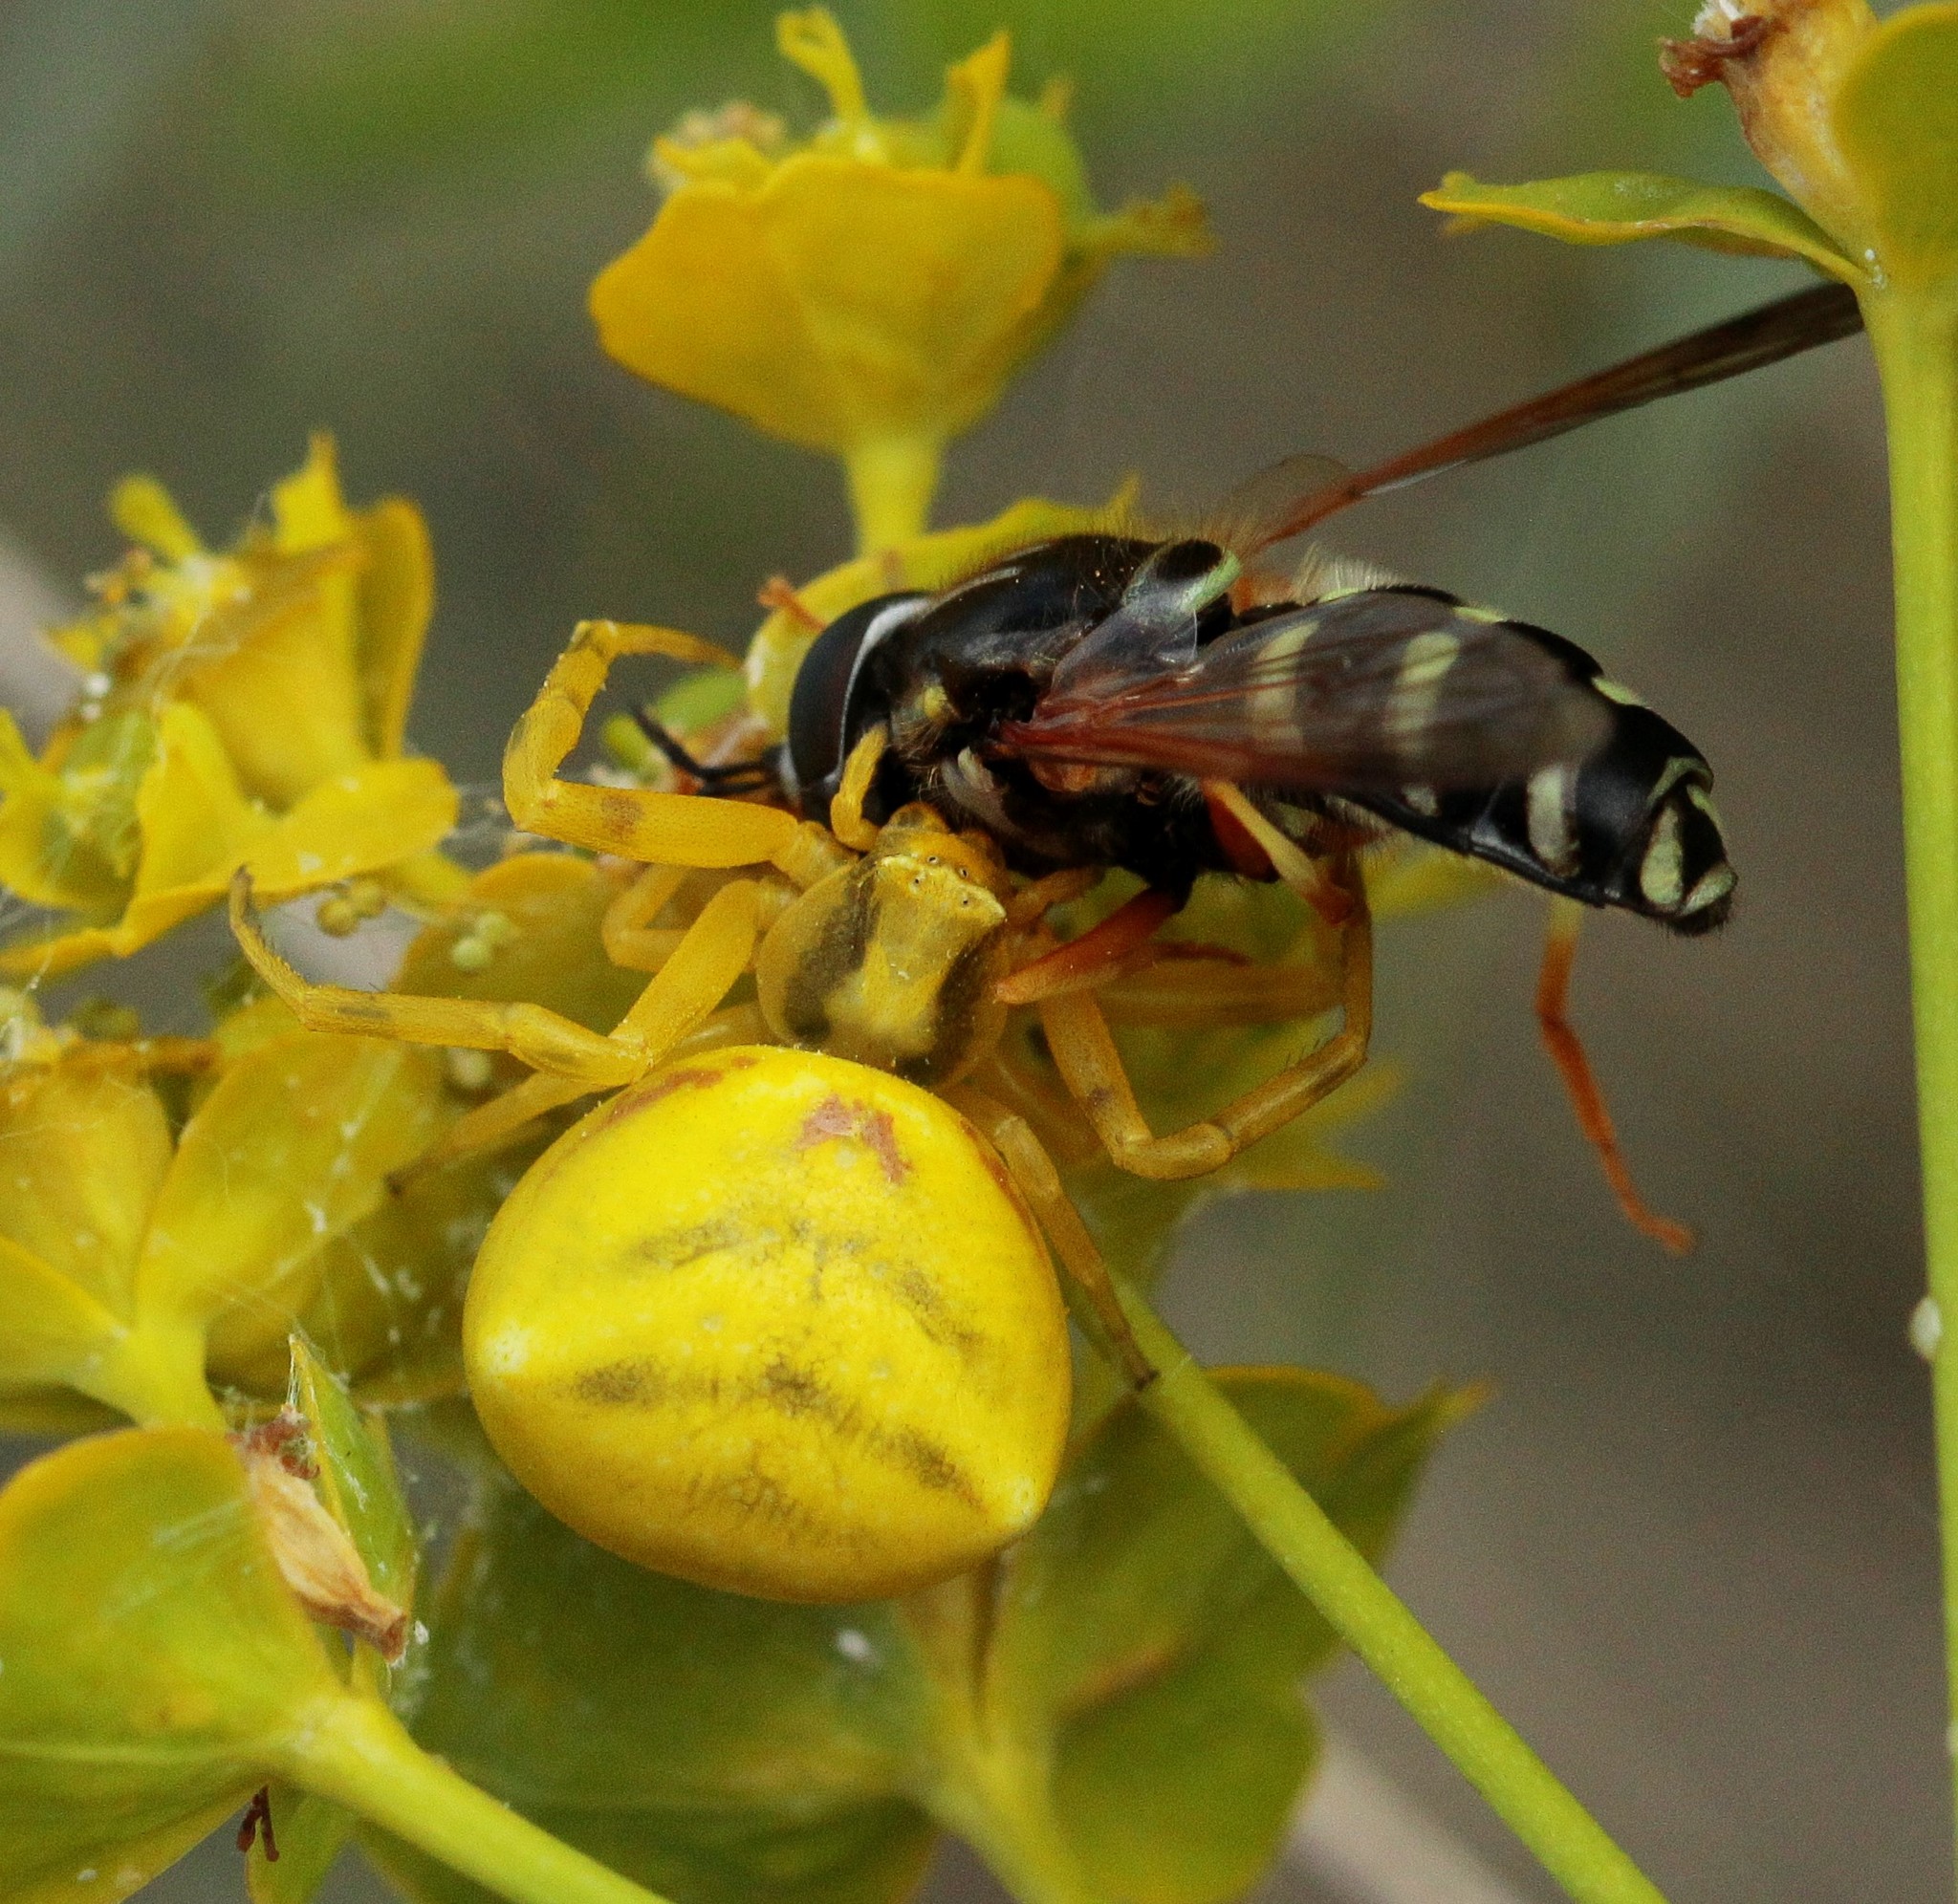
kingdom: Animalia
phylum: Arthropoda
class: Arachnida
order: Araneae
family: Thomisidae
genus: Thomisus
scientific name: Thomisus onustus
